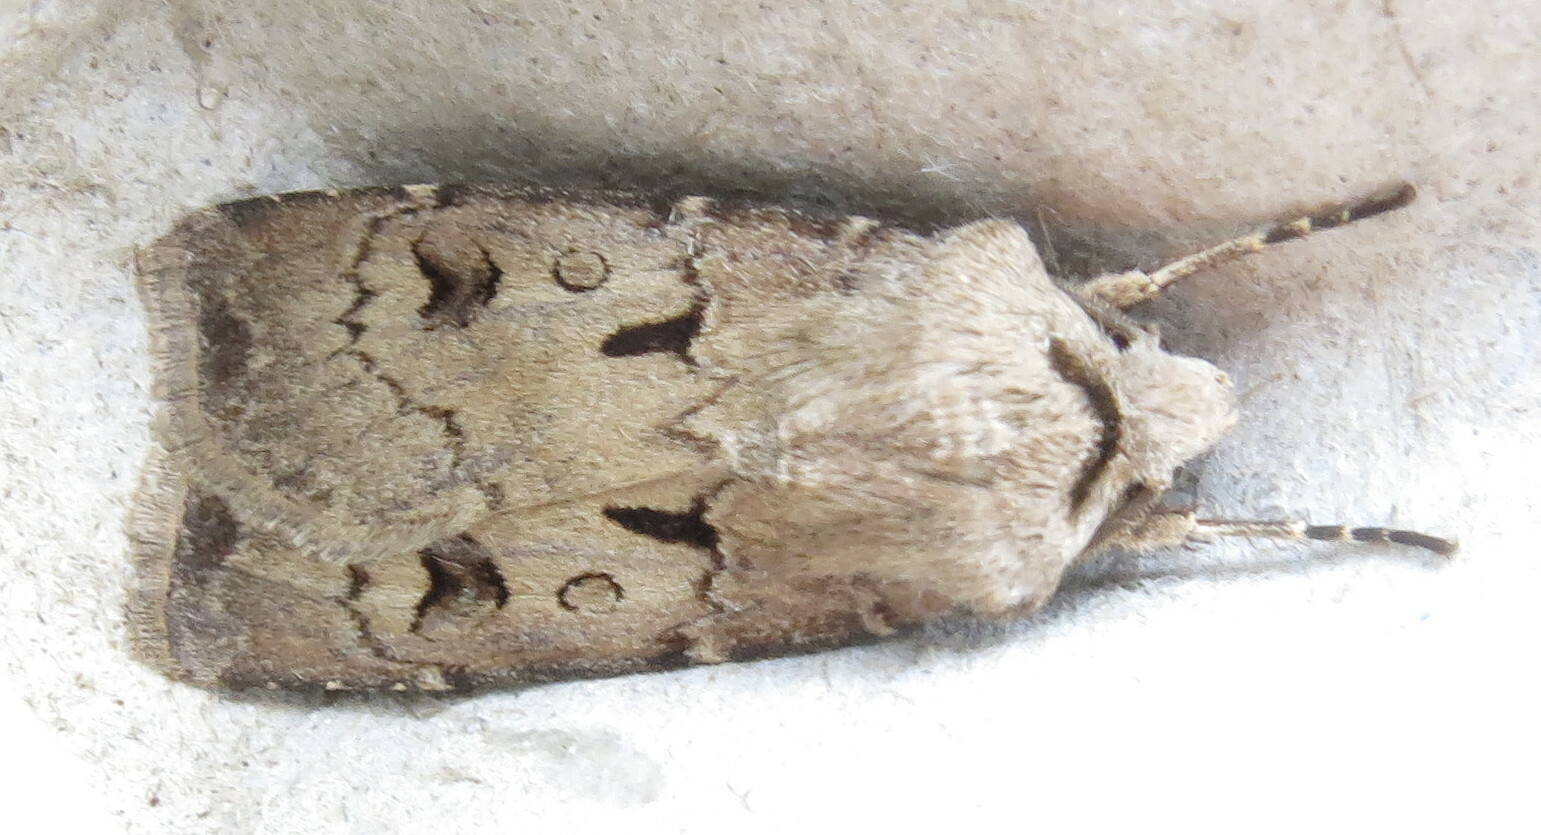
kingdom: Animalia
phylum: Arthropoda
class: Insecta
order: Lepidoptera
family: Noctuidae
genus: Agrotis
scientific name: Agrotis exclamationis
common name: Heart and dart
